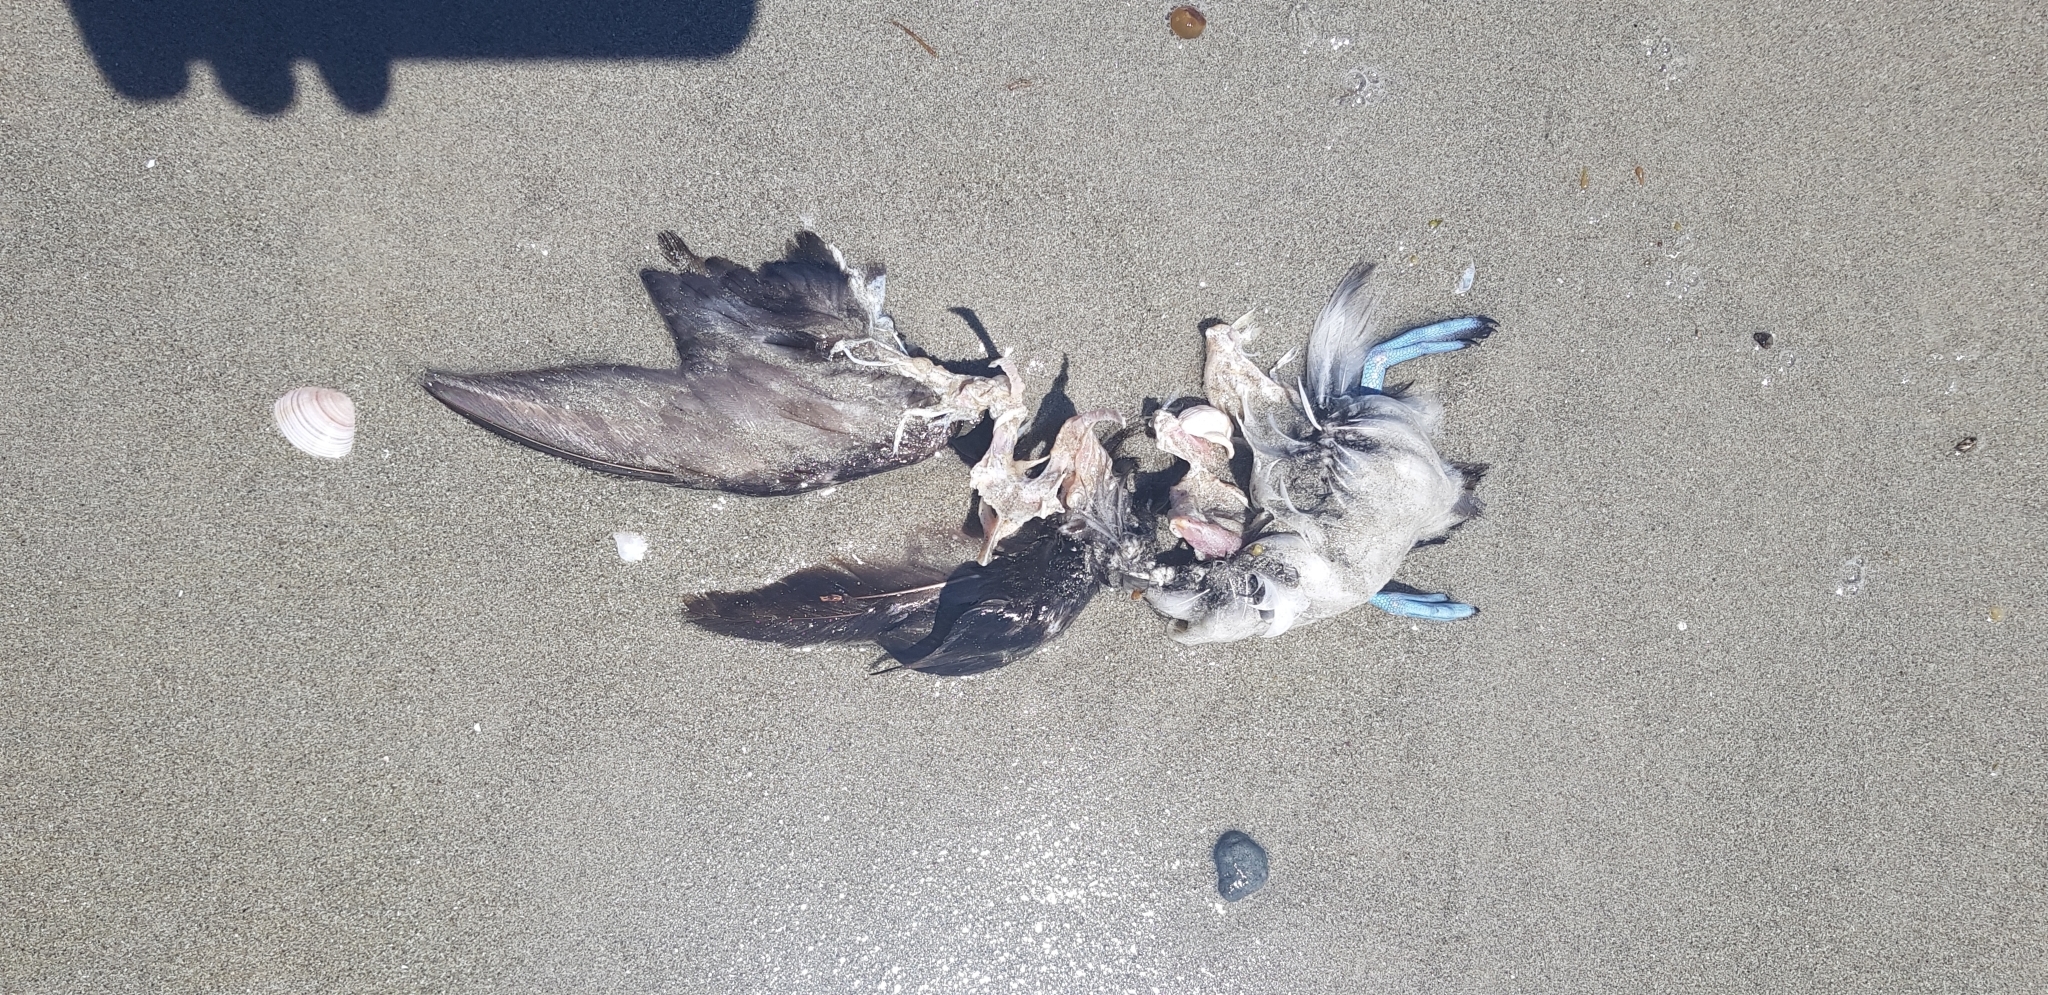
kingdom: Animalia
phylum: Chordata
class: Aves
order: Procellariiformes
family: Pelecanoididae
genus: Pelecanoides
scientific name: Pelecanoides urinatrix
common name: Common diving-petrel
